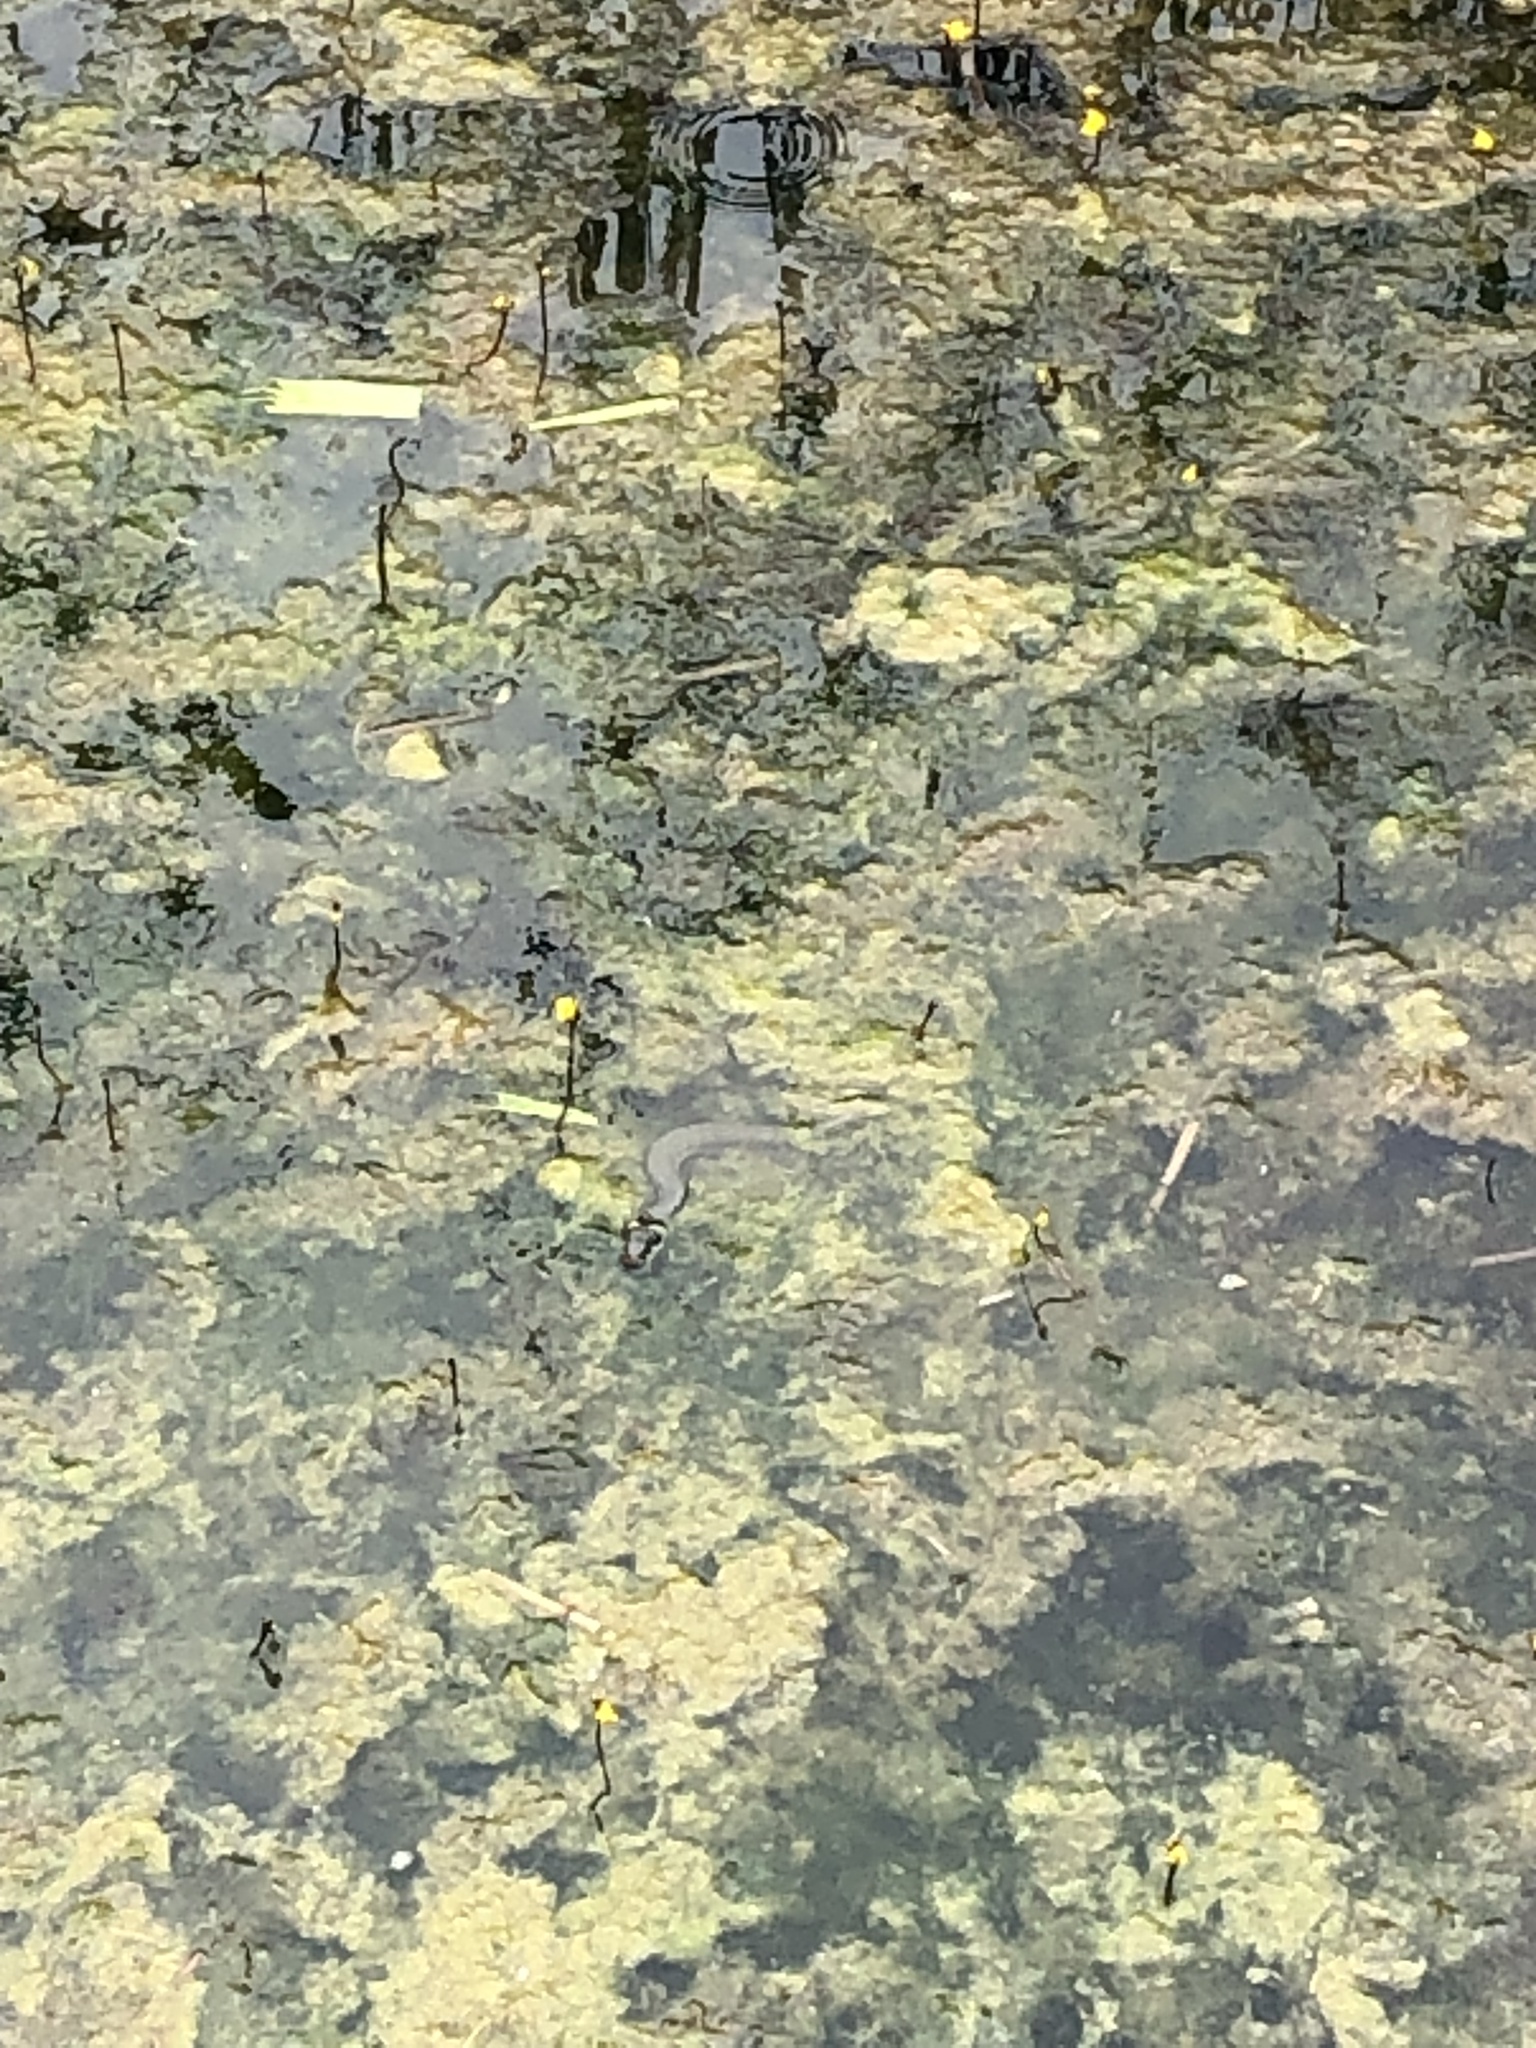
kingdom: Animalia
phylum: Chordata
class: Squamata
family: Colubridae
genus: Natrix
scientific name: Natrix natrix
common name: Grass snake
